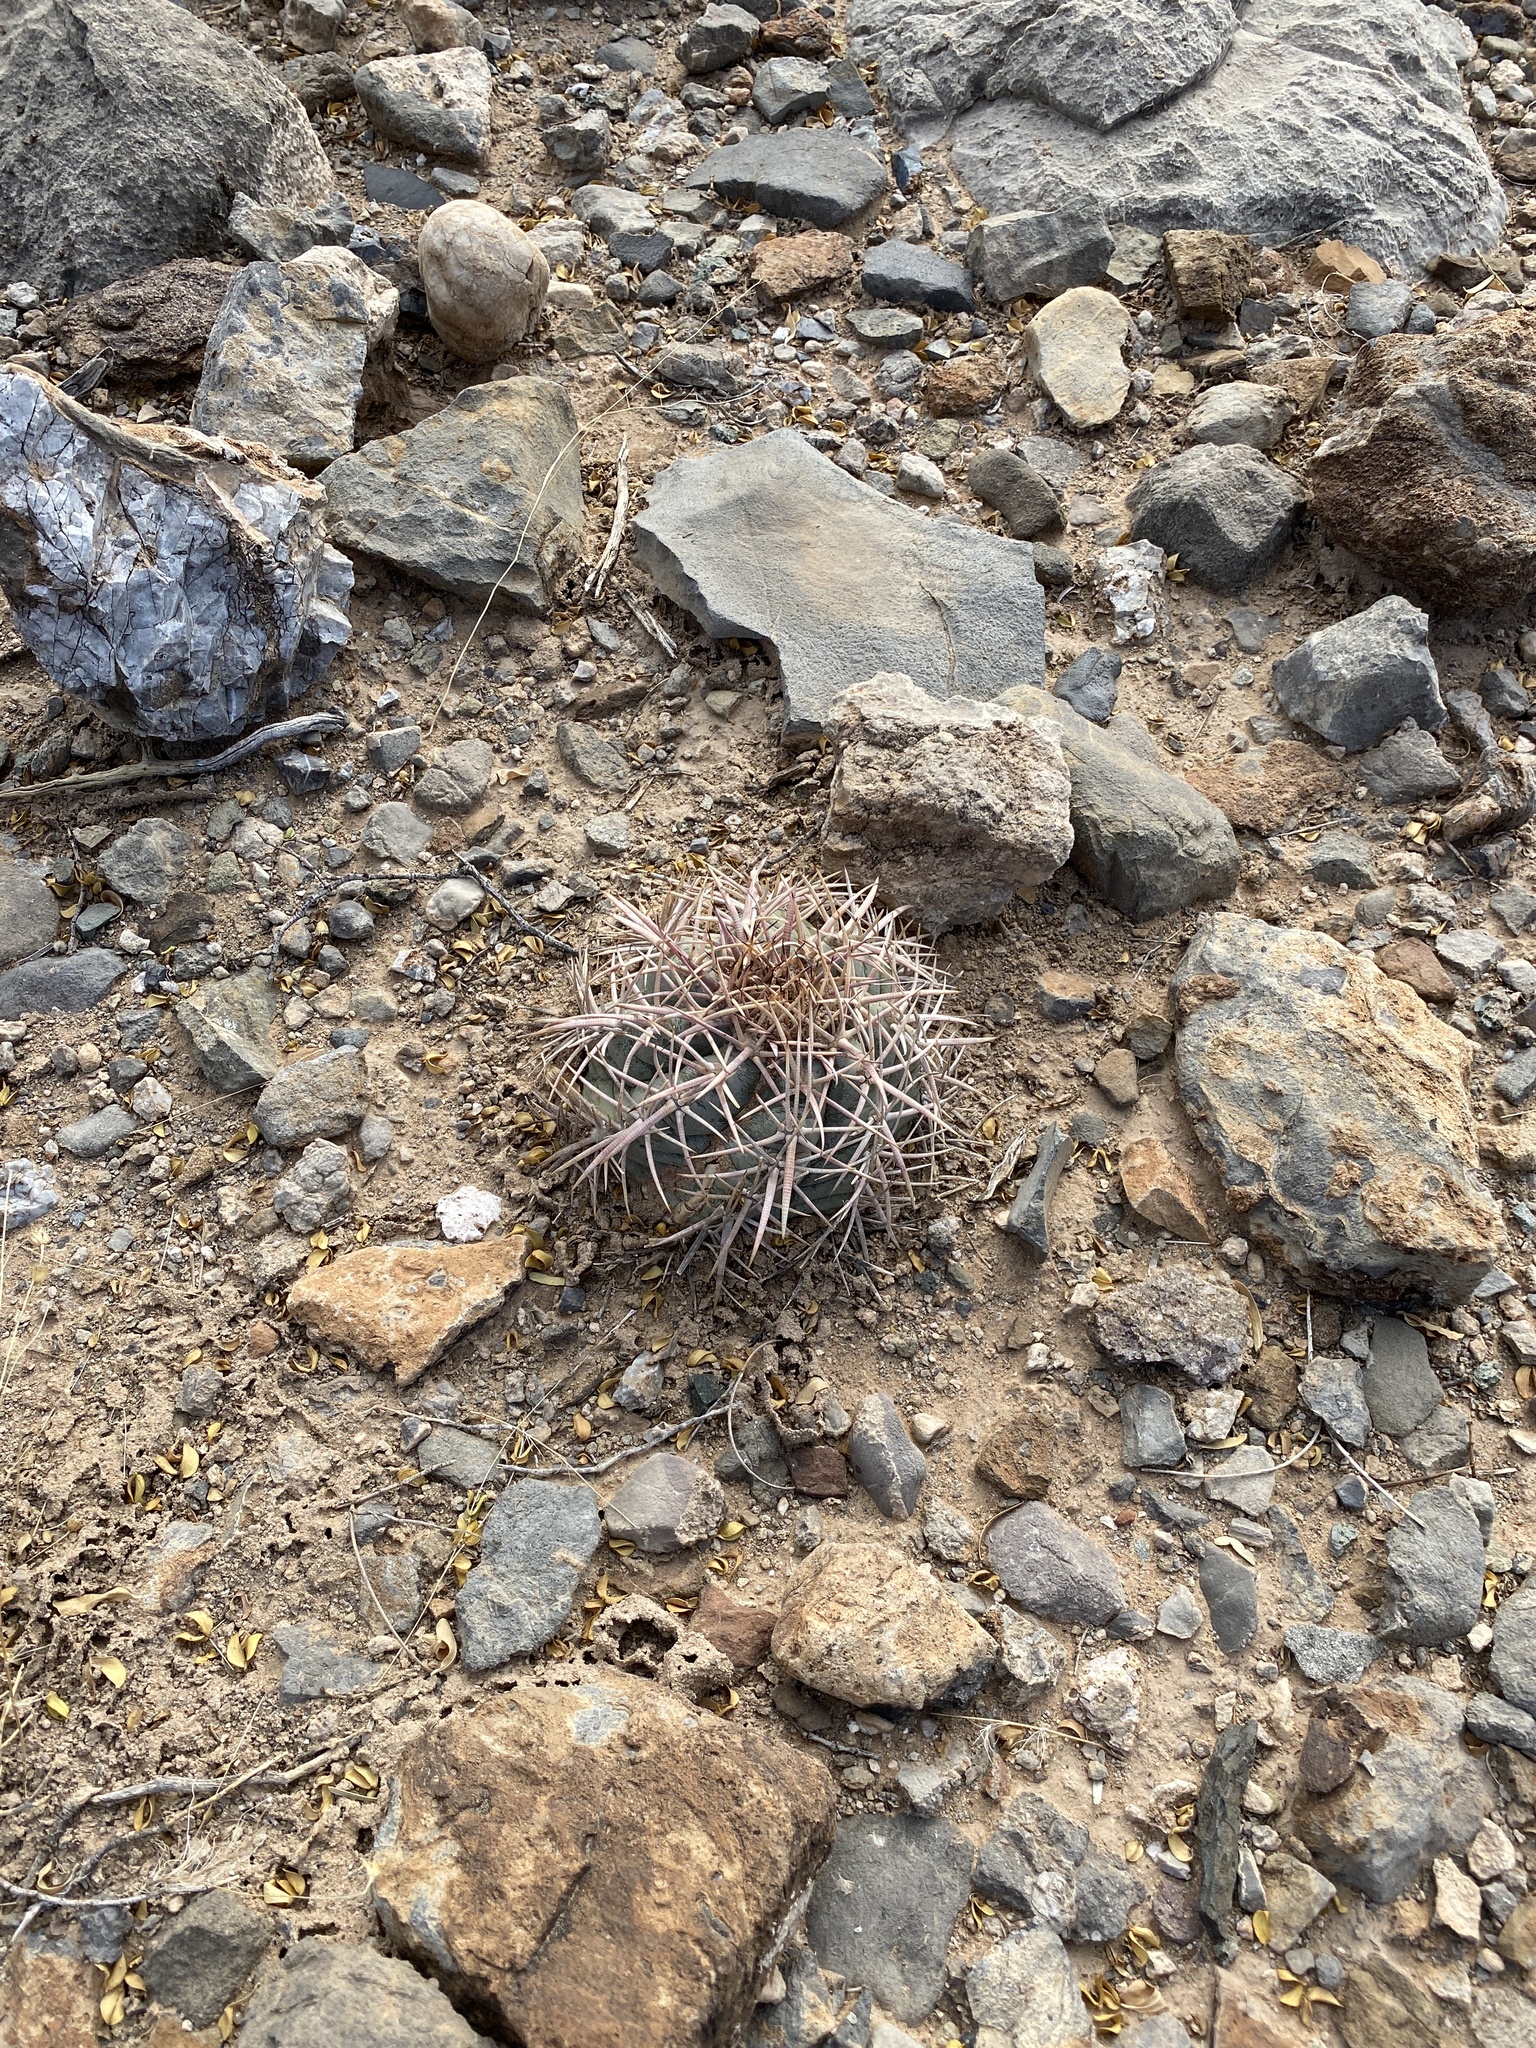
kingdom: Plantae
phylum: Tracheophyta
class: Magnoliopsida
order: Caryophyllales
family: Cactaceae
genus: Echinocactus
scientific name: Echinocactus horizonthalonius
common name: Devilshead
